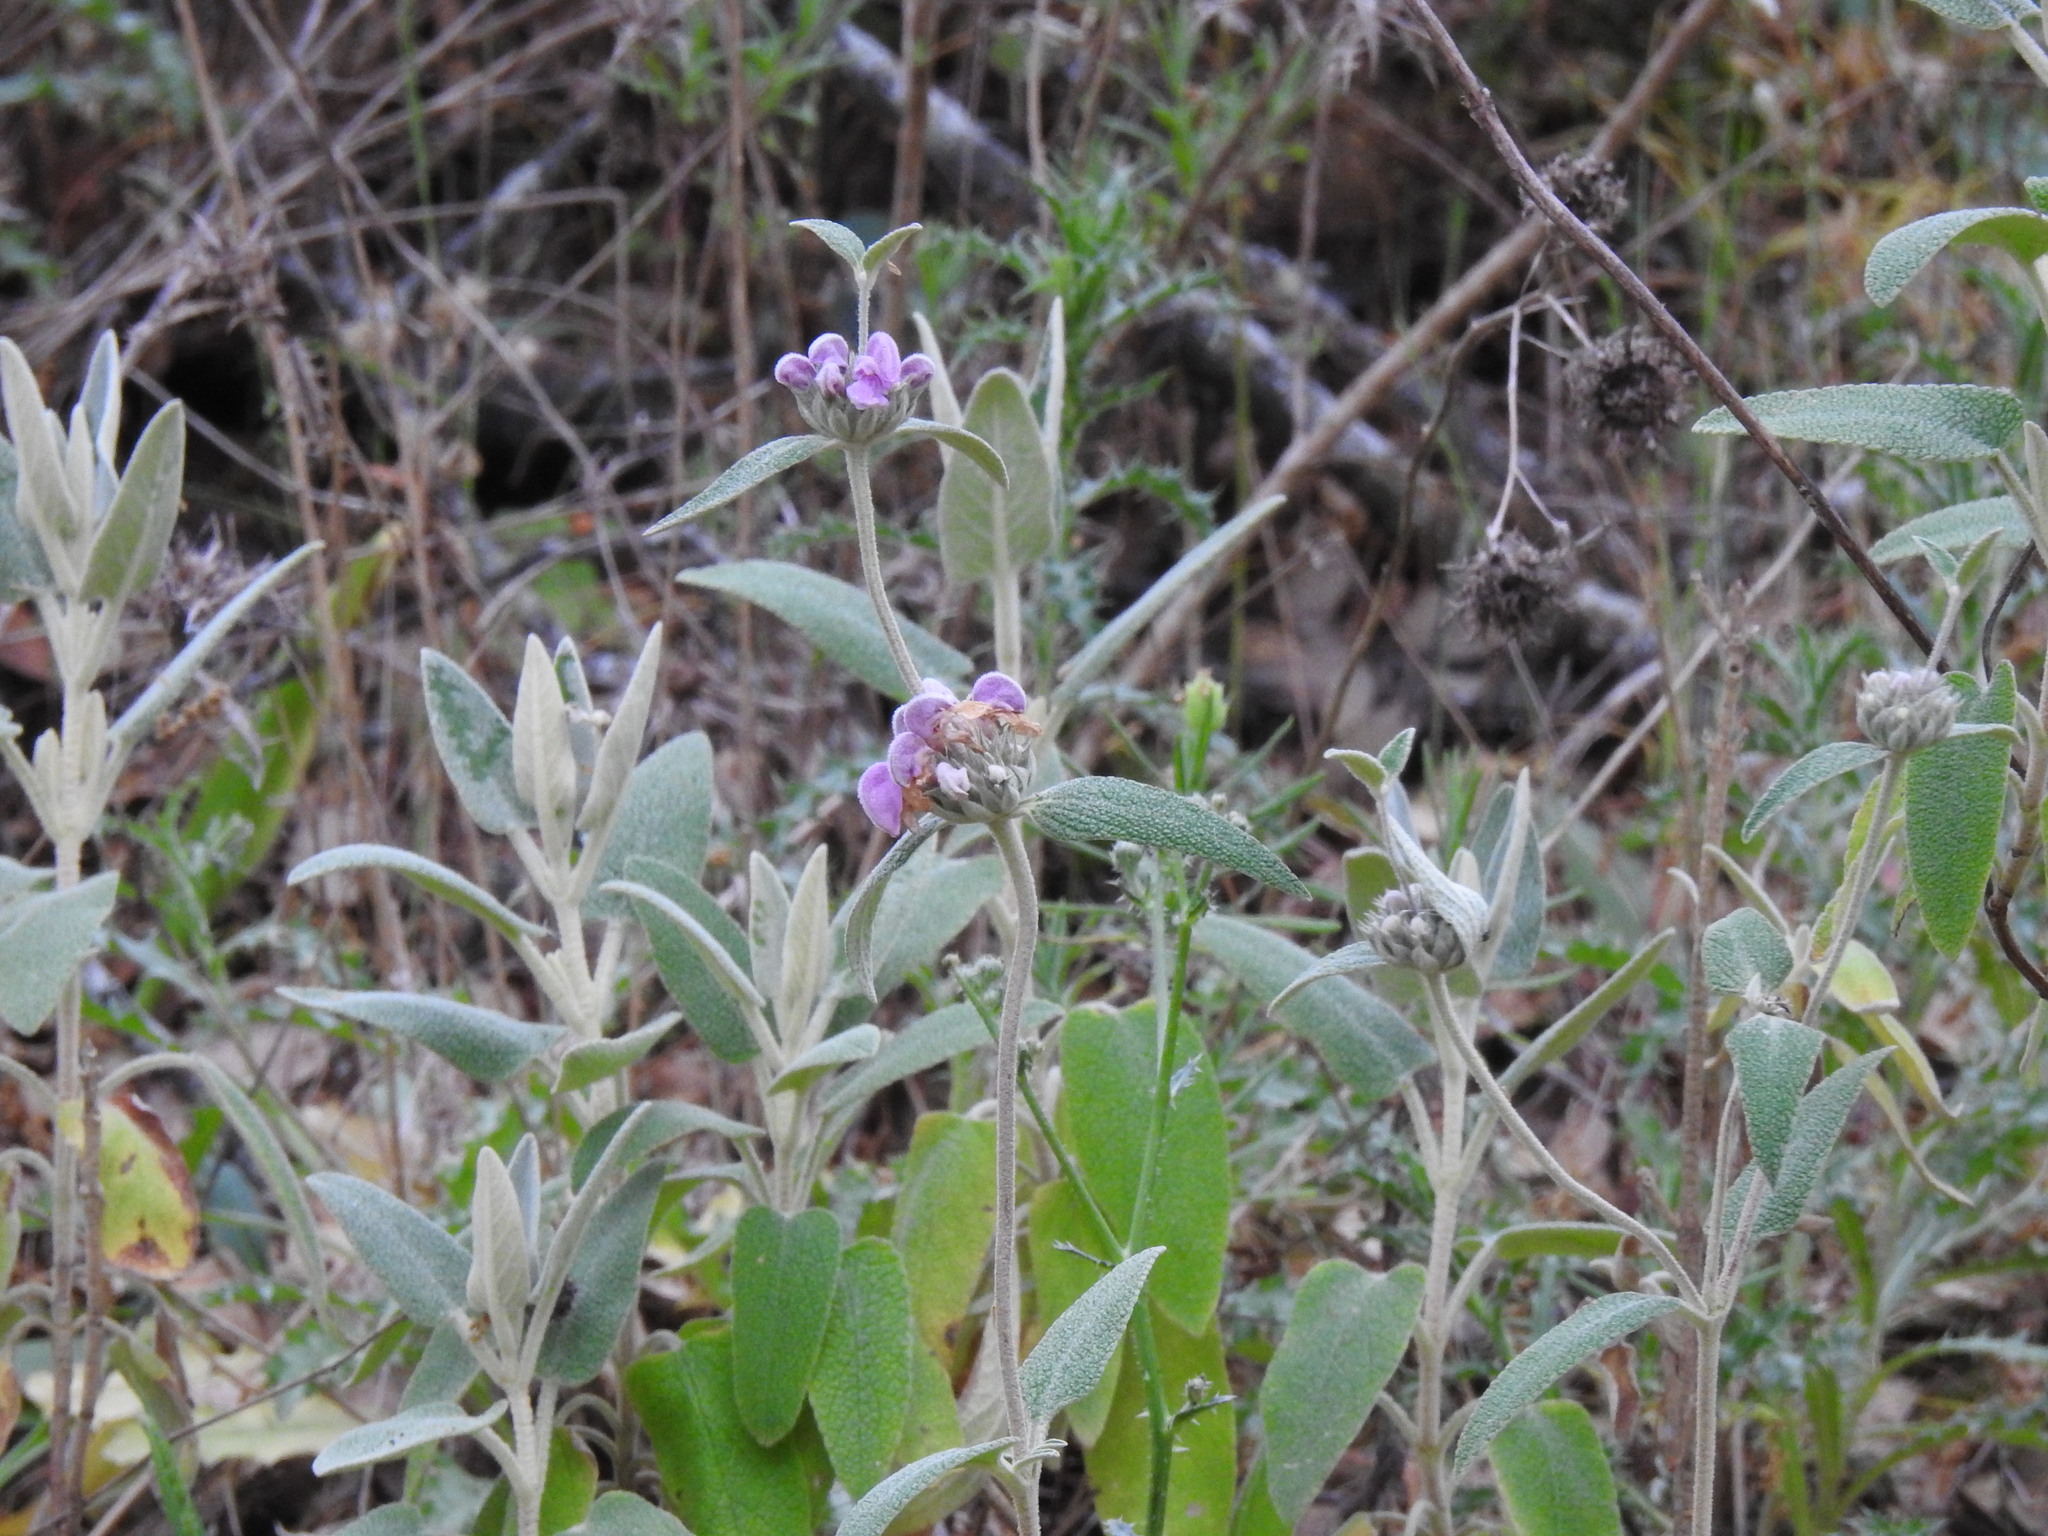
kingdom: Plantae
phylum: Tracheophyta
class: Magnoliopsida
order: Lamiales
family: Lamiaceae
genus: Phlomis
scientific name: Phlomis purpurea
